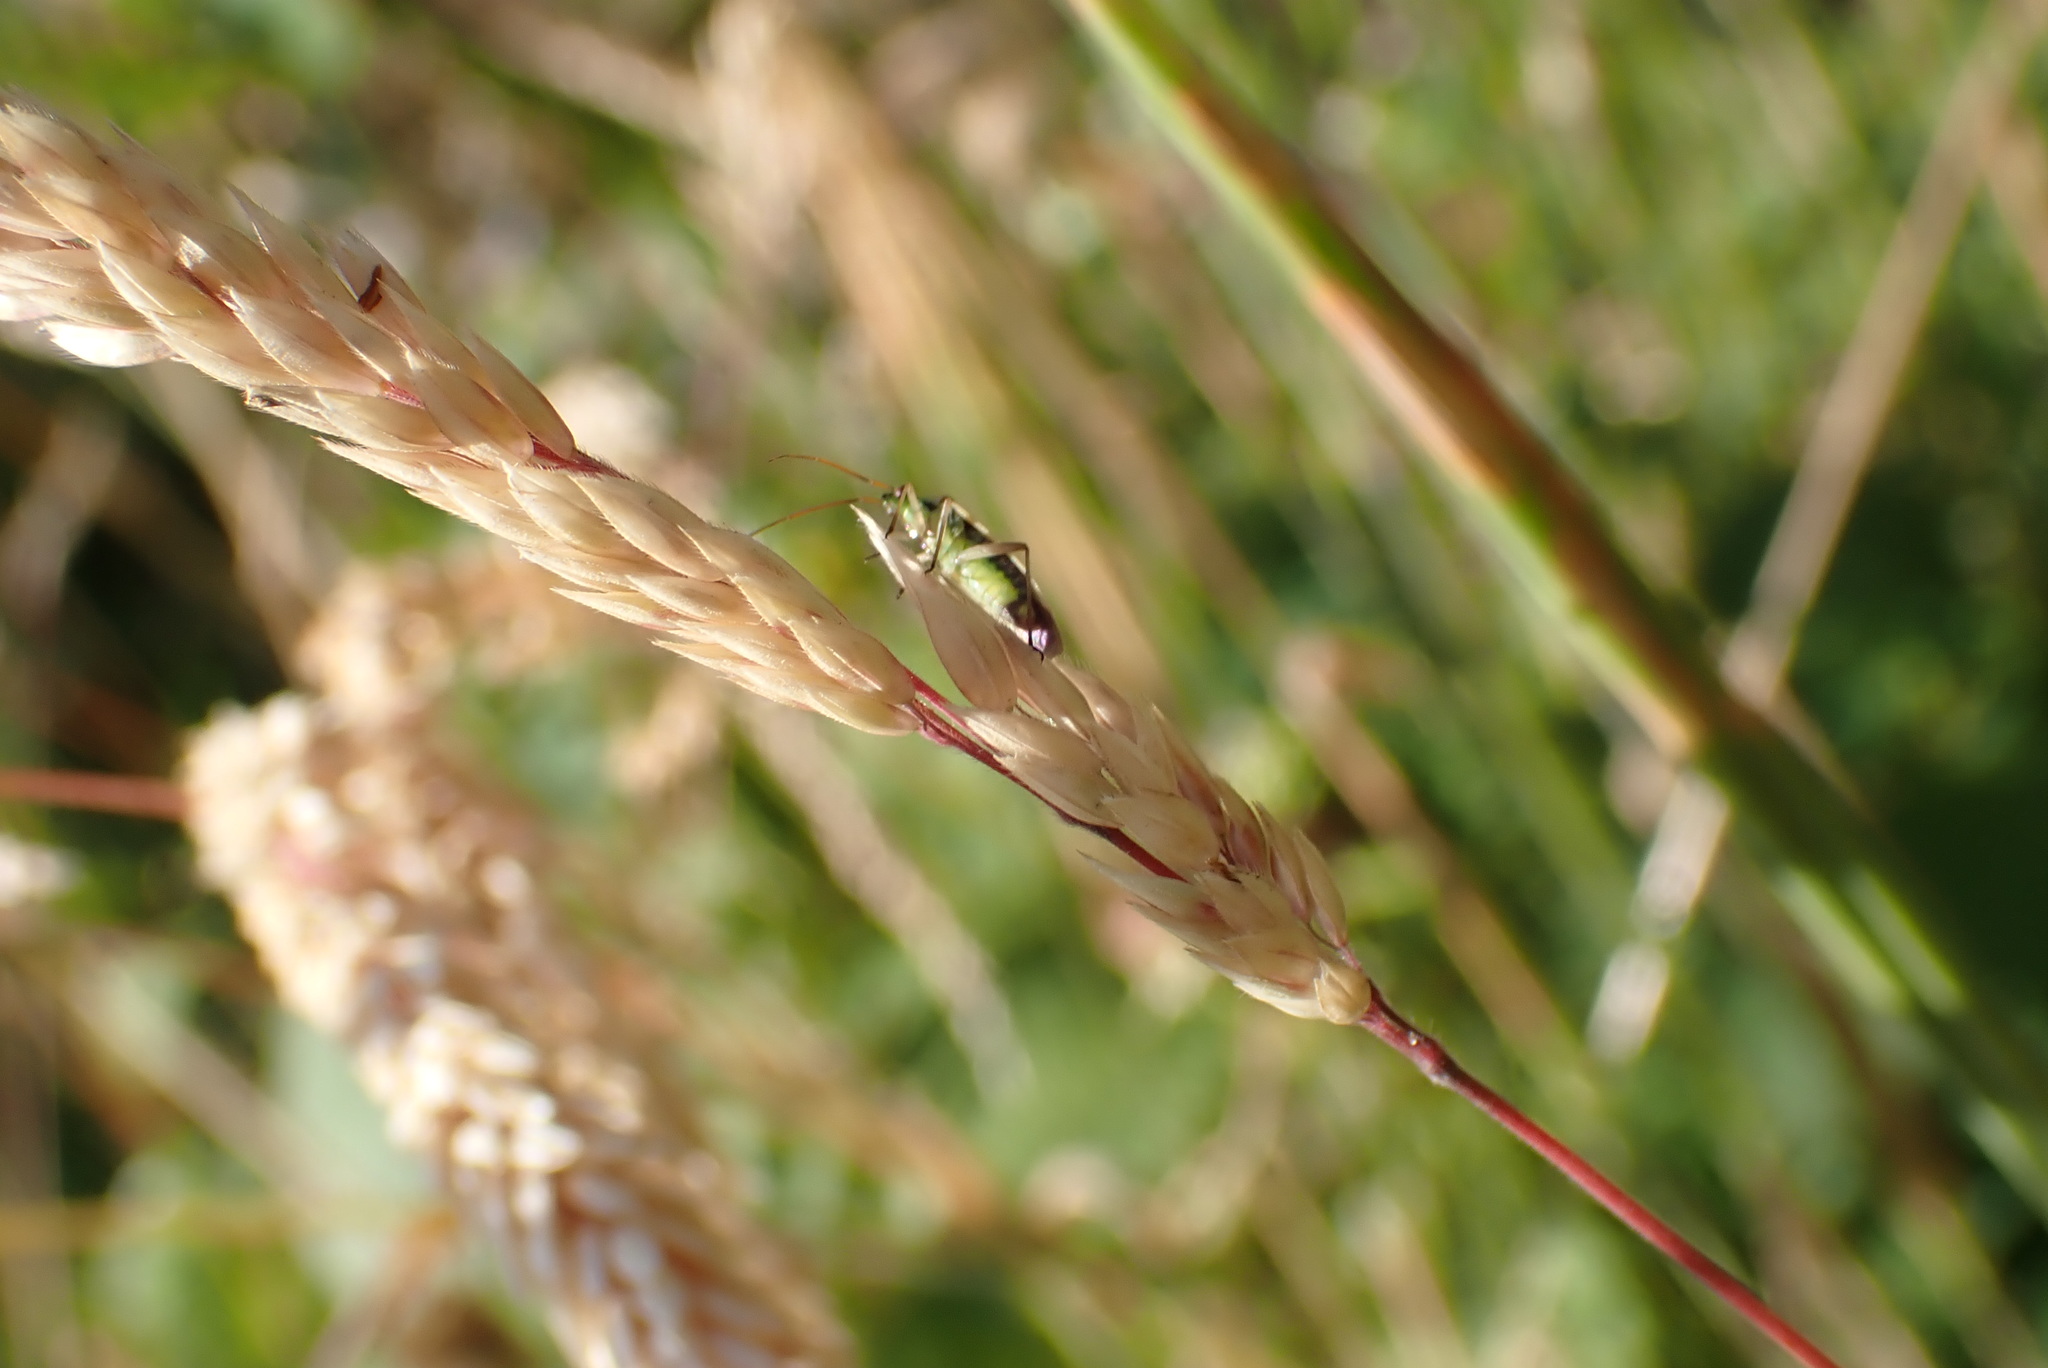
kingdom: Animalia
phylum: Arthropoda
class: Insecta
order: Hemiptera
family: Miridae
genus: Stenotus
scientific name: Stenotus binotatus
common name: Plant bug
